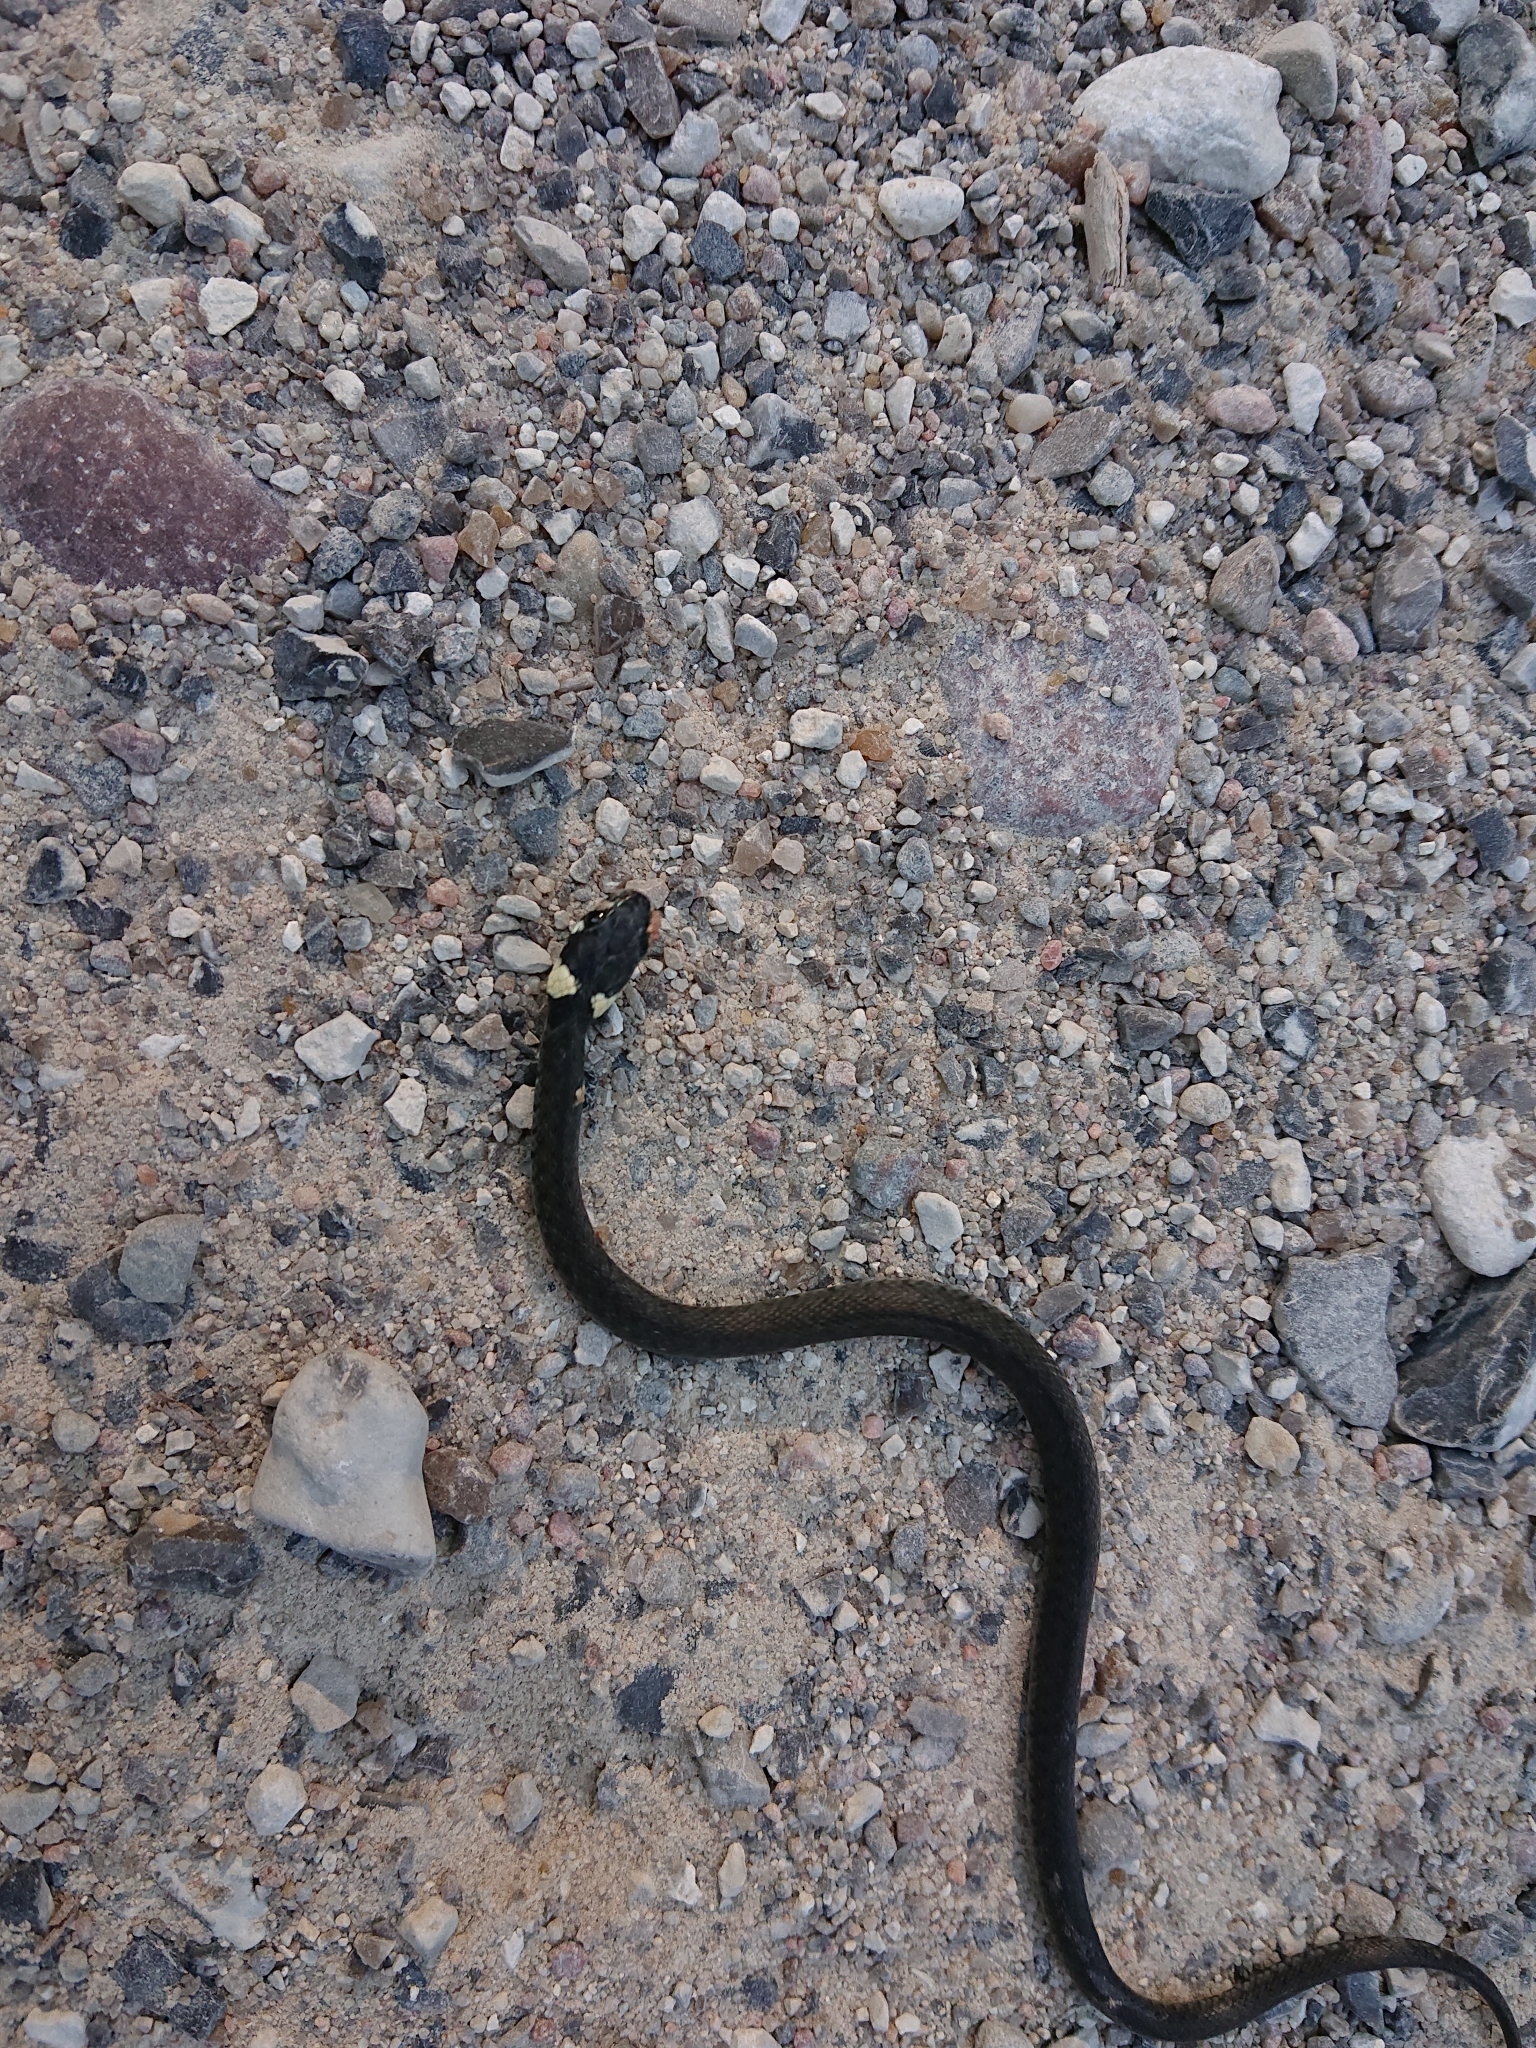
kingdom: Animalia
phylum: Chordata
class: Squamata
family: Colubridae
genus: Natrix
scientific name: Natrix natrix
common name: Grass snake
